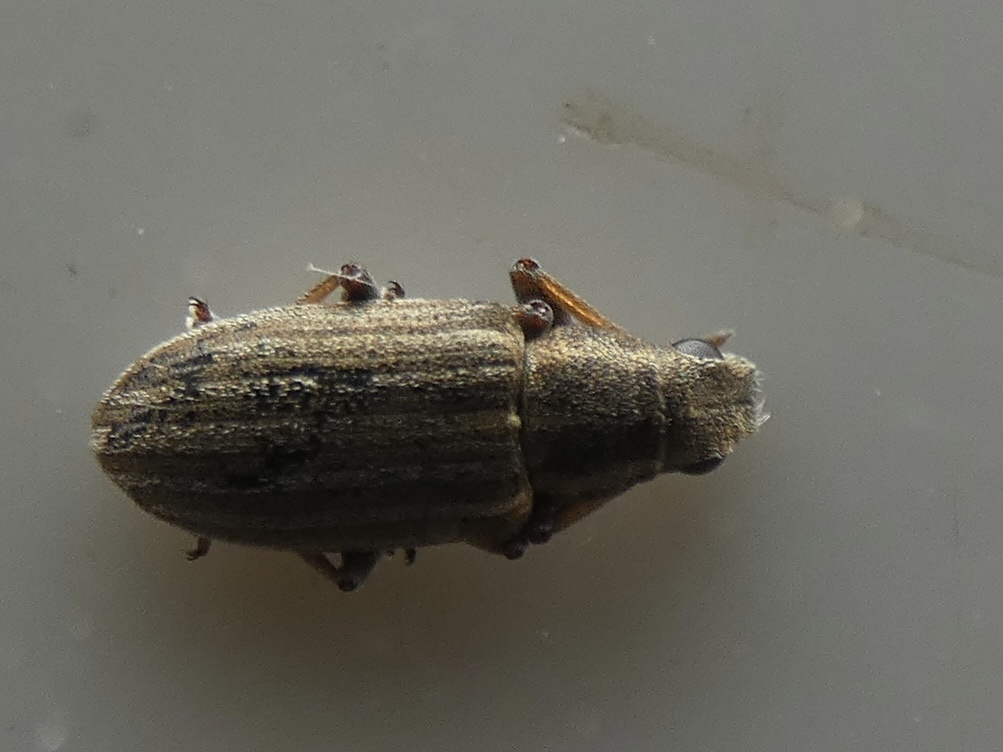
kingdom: Animalia
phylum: Arthropoda
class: Insecta
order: Coleoptera
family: Curculionidae
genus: Sitona
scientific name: Sitona lineatus
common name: Weevil
